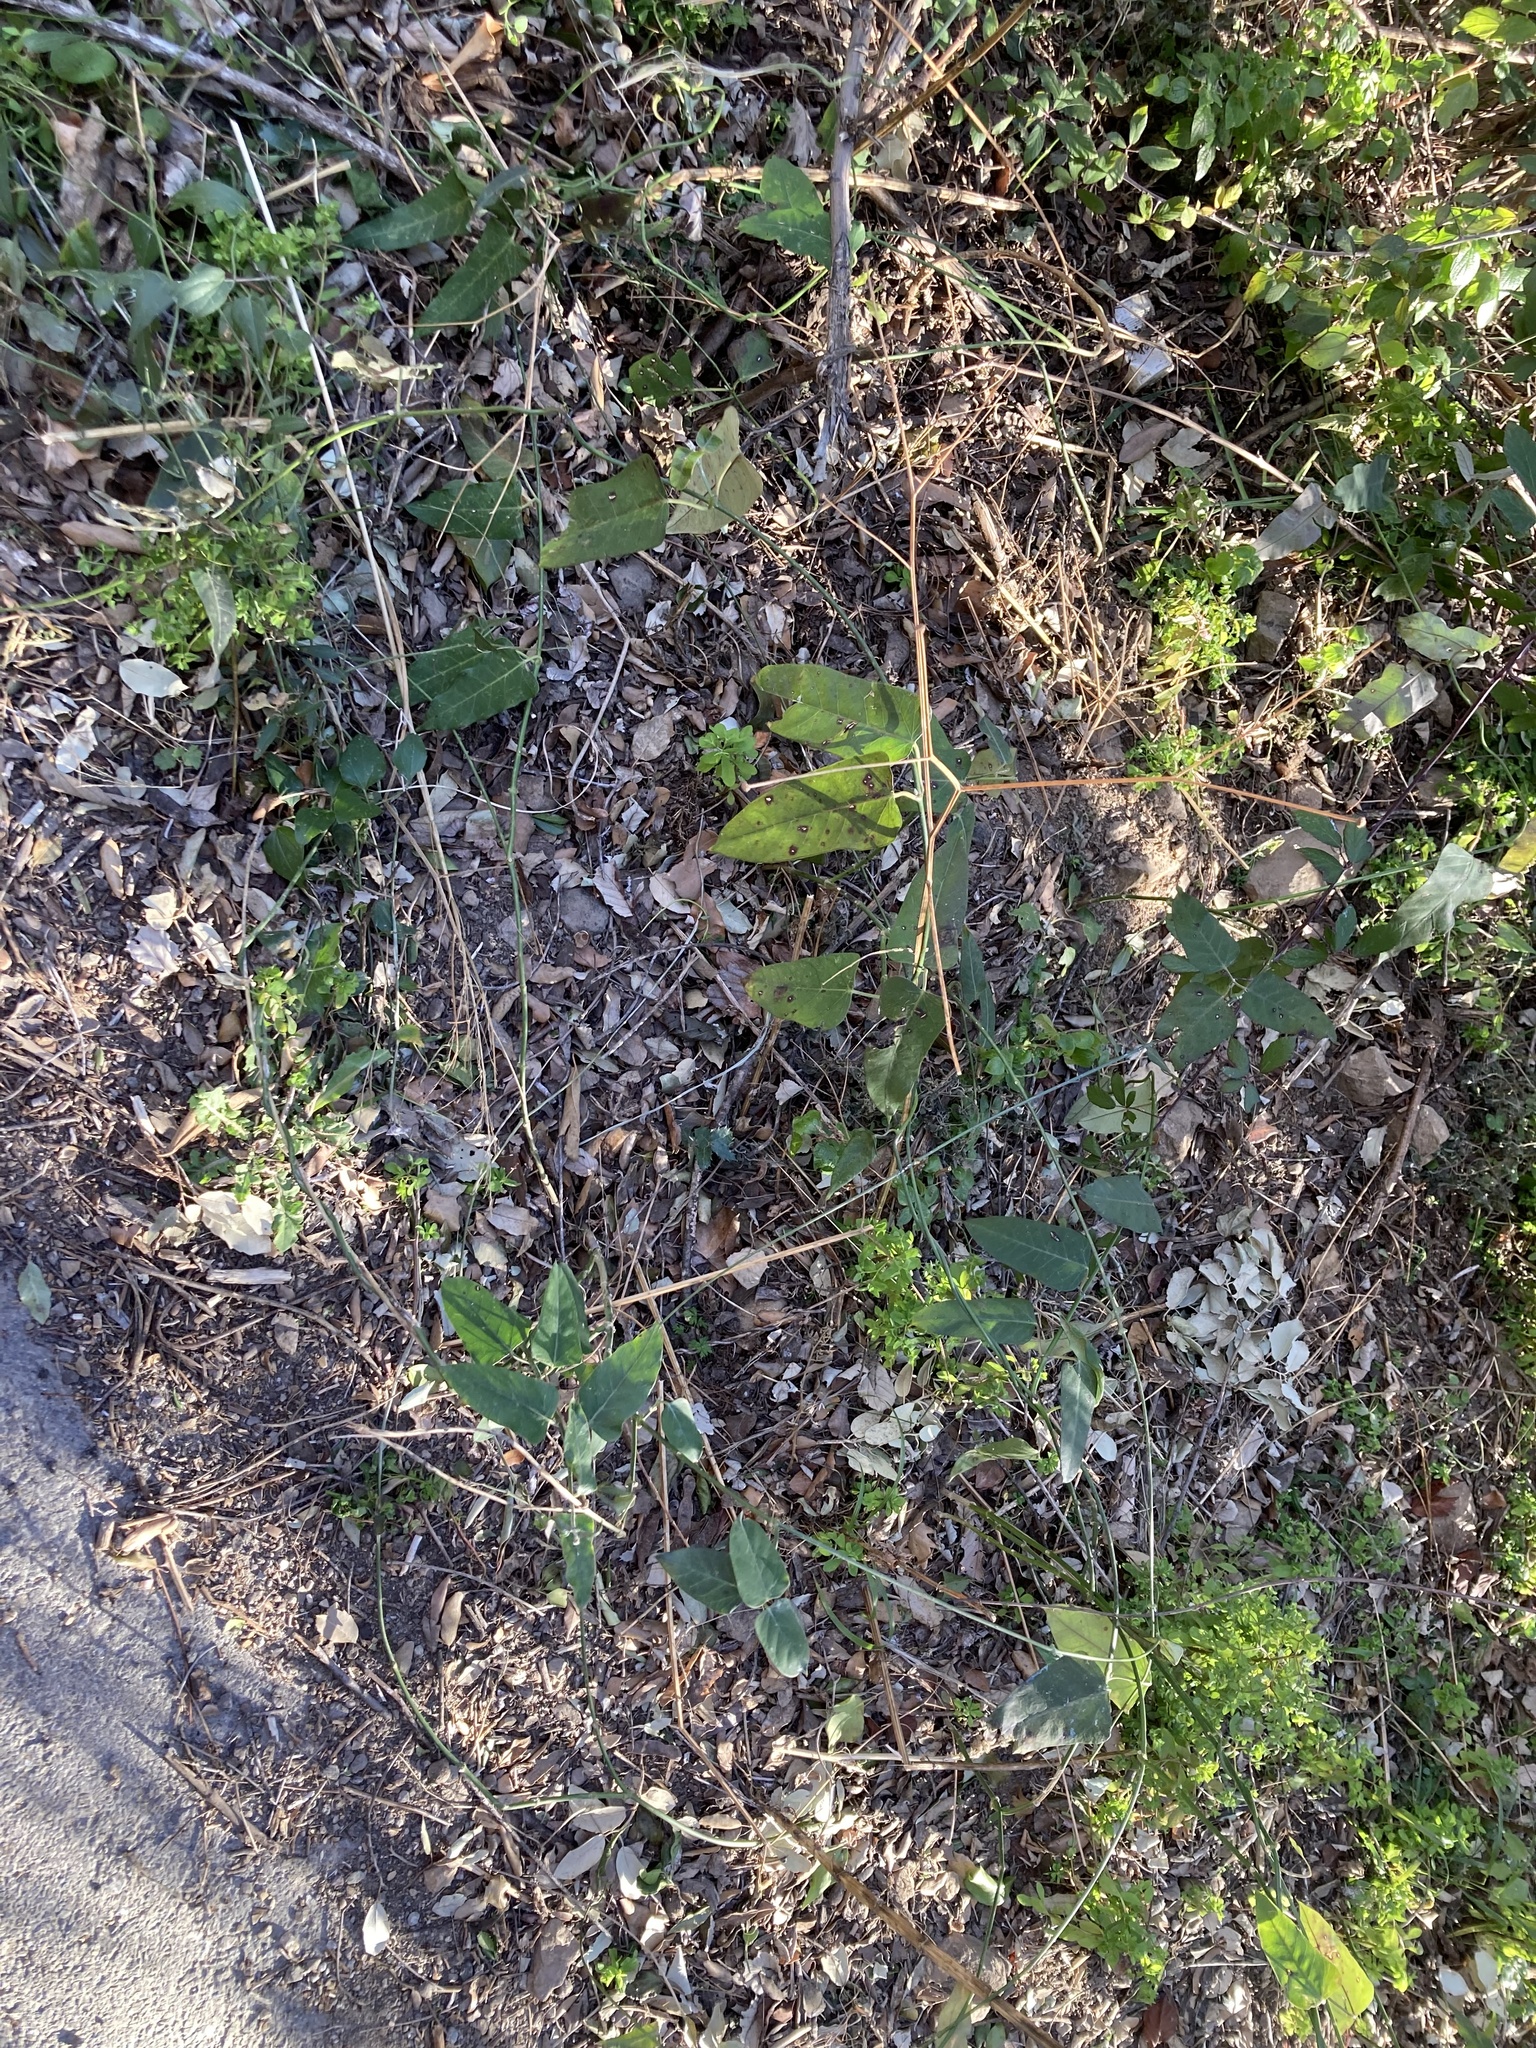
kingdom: Plantae
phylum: Tracheophyta
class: Magnoliopsida
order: Gentianales
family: Apocynaceae
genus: Araujia
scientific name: Araujia sericifera
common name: White bladderflower
